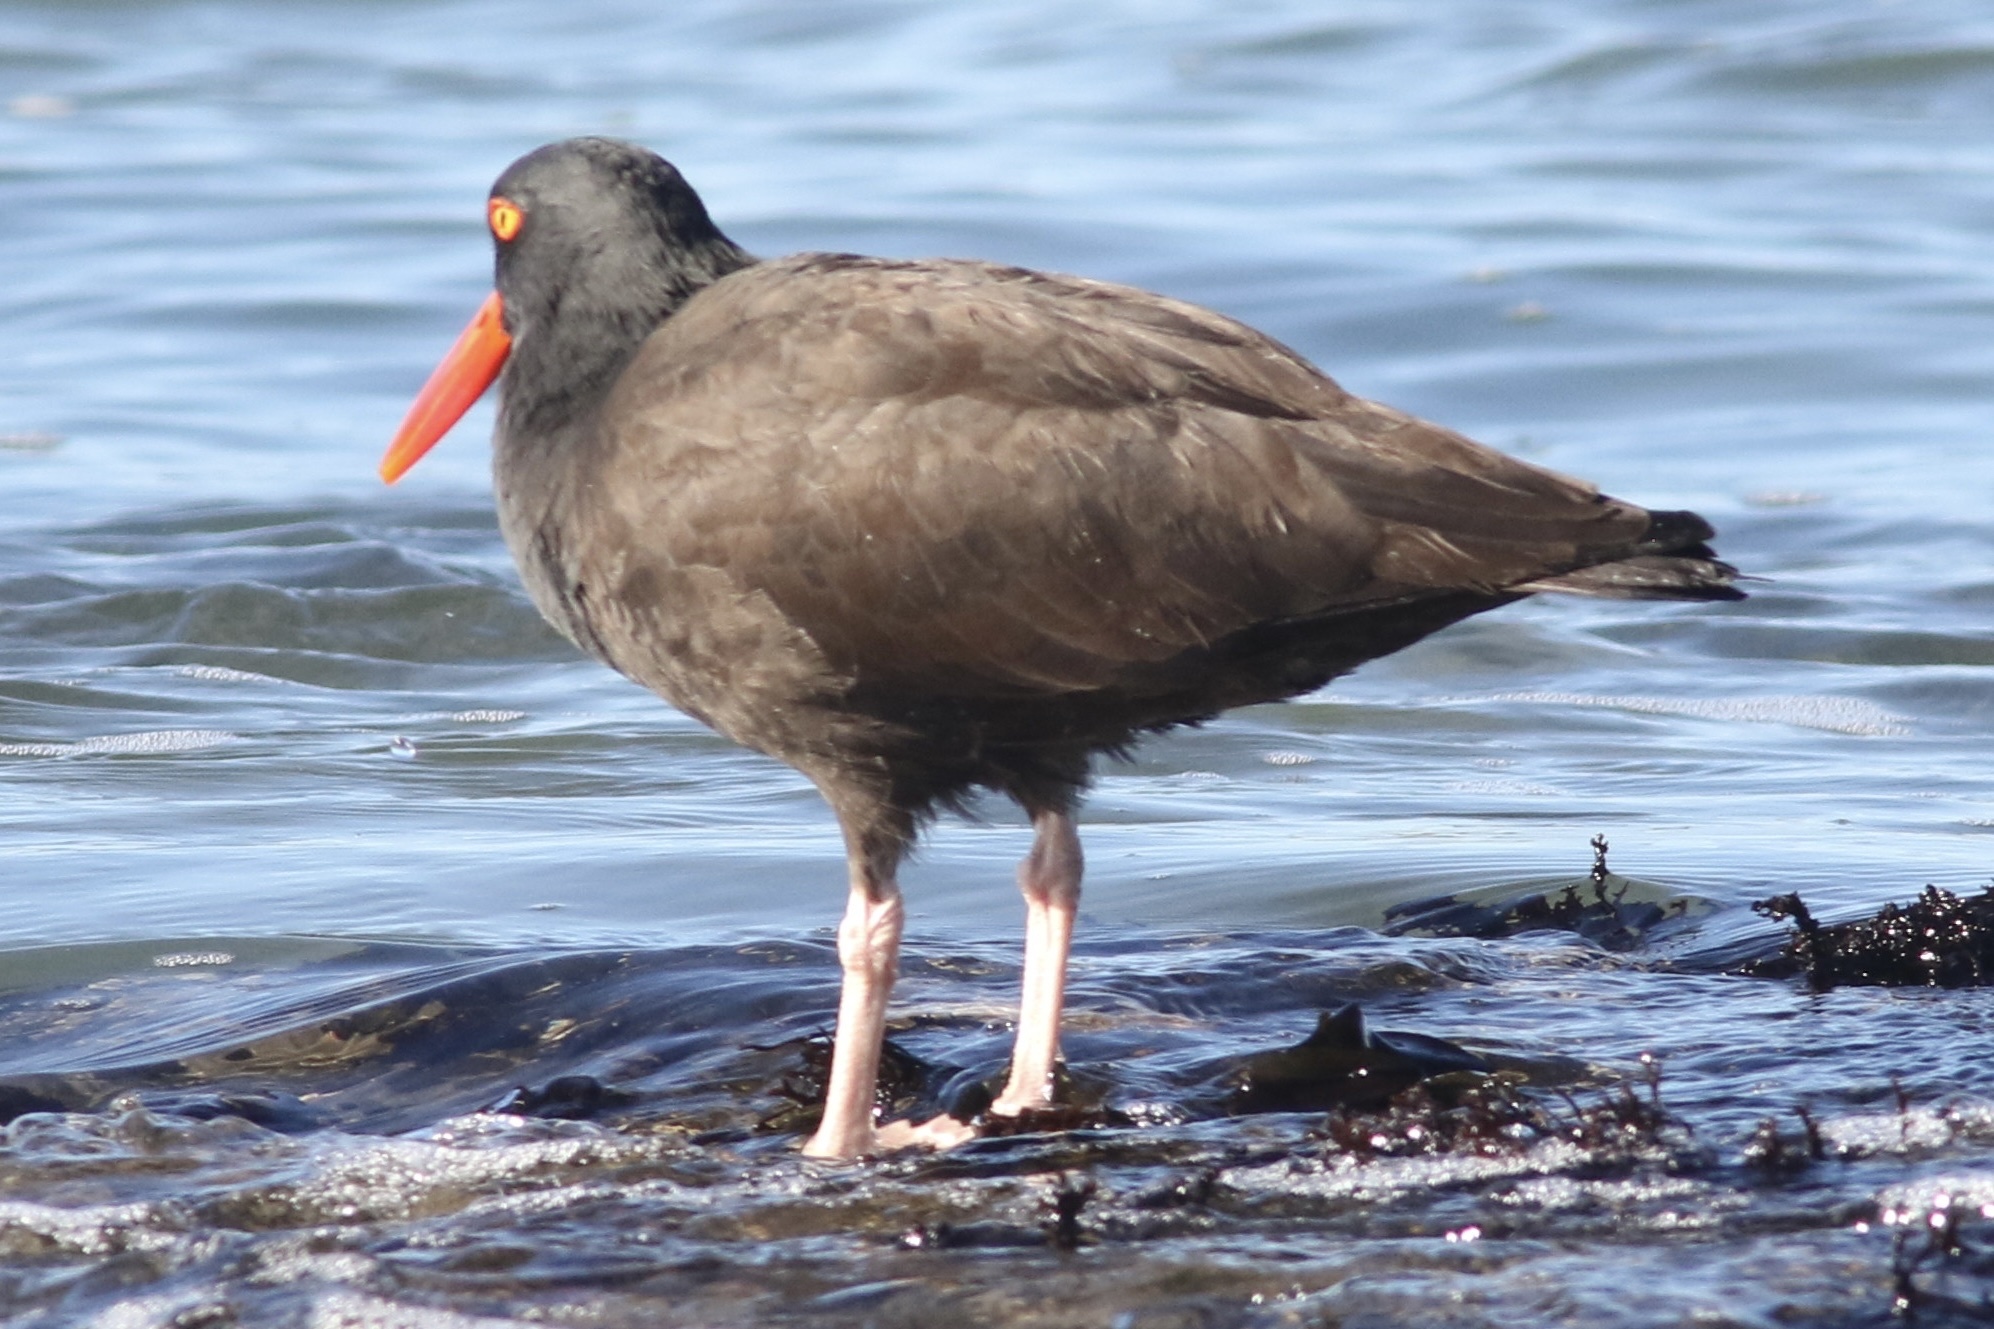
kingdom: Animalia
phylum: Chordata
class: Aves
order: Charadriiformes
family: Haematopodidae
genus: Haematopus
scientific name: Haematopus bachmani
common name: Black oystercatcher
